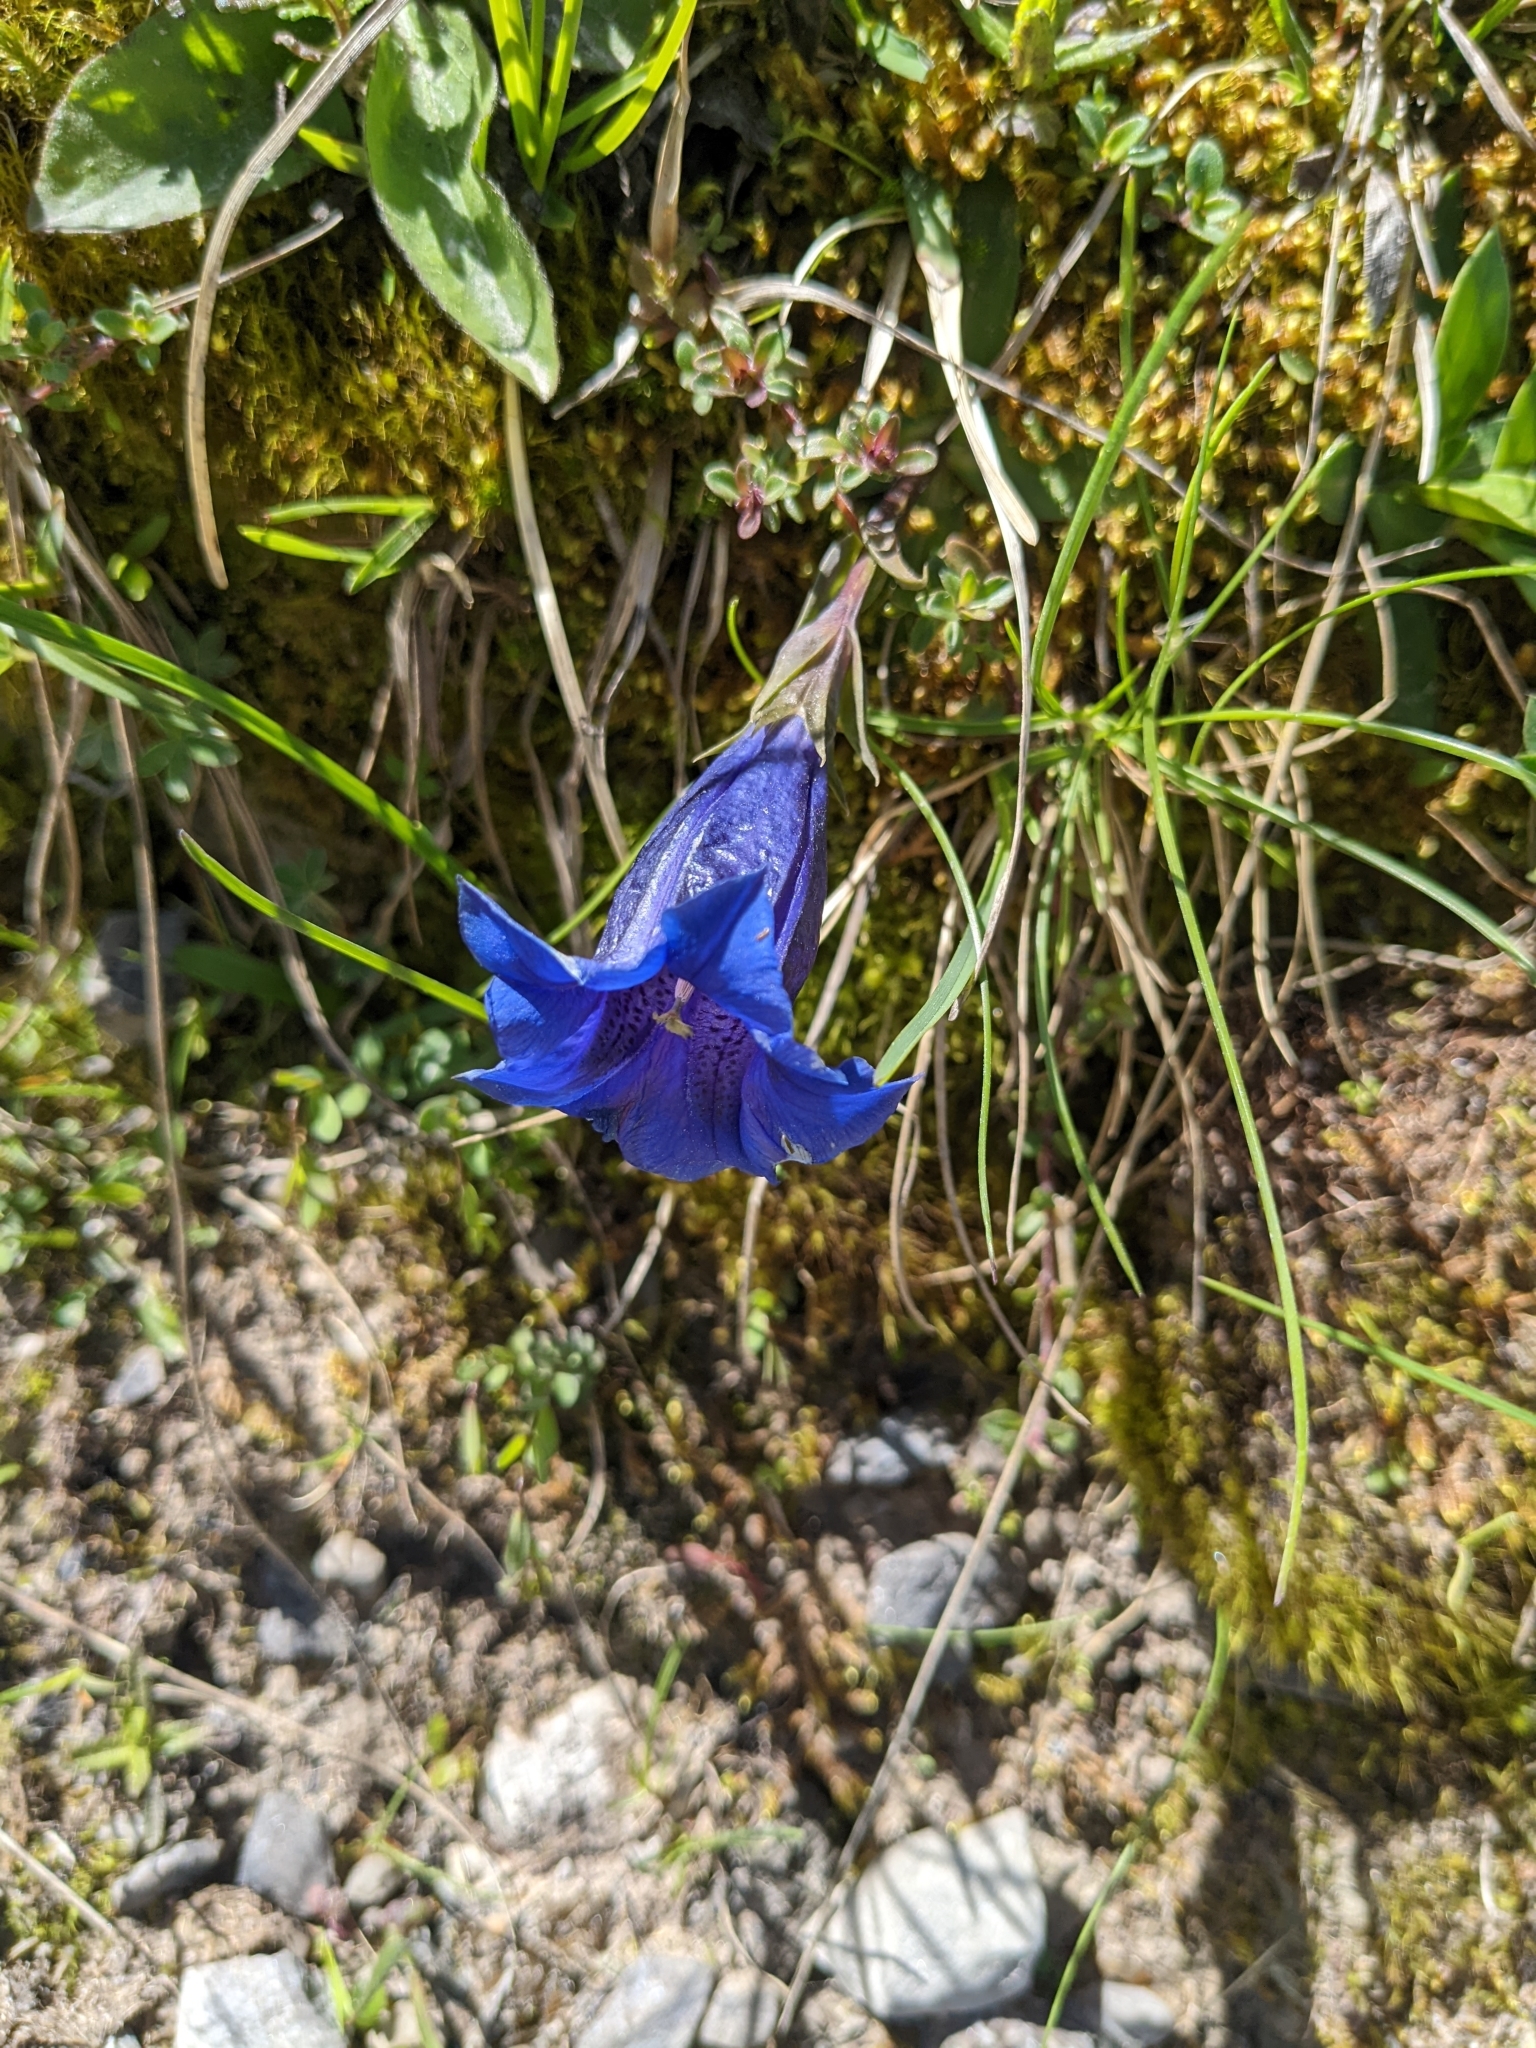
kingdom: Plantae
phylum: Tracheophyta
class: Magnoliopsida
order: Gentianales
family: Gentianaceae
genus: Gentiana
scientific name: Gentiana clusii
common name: Trumpet gentian
